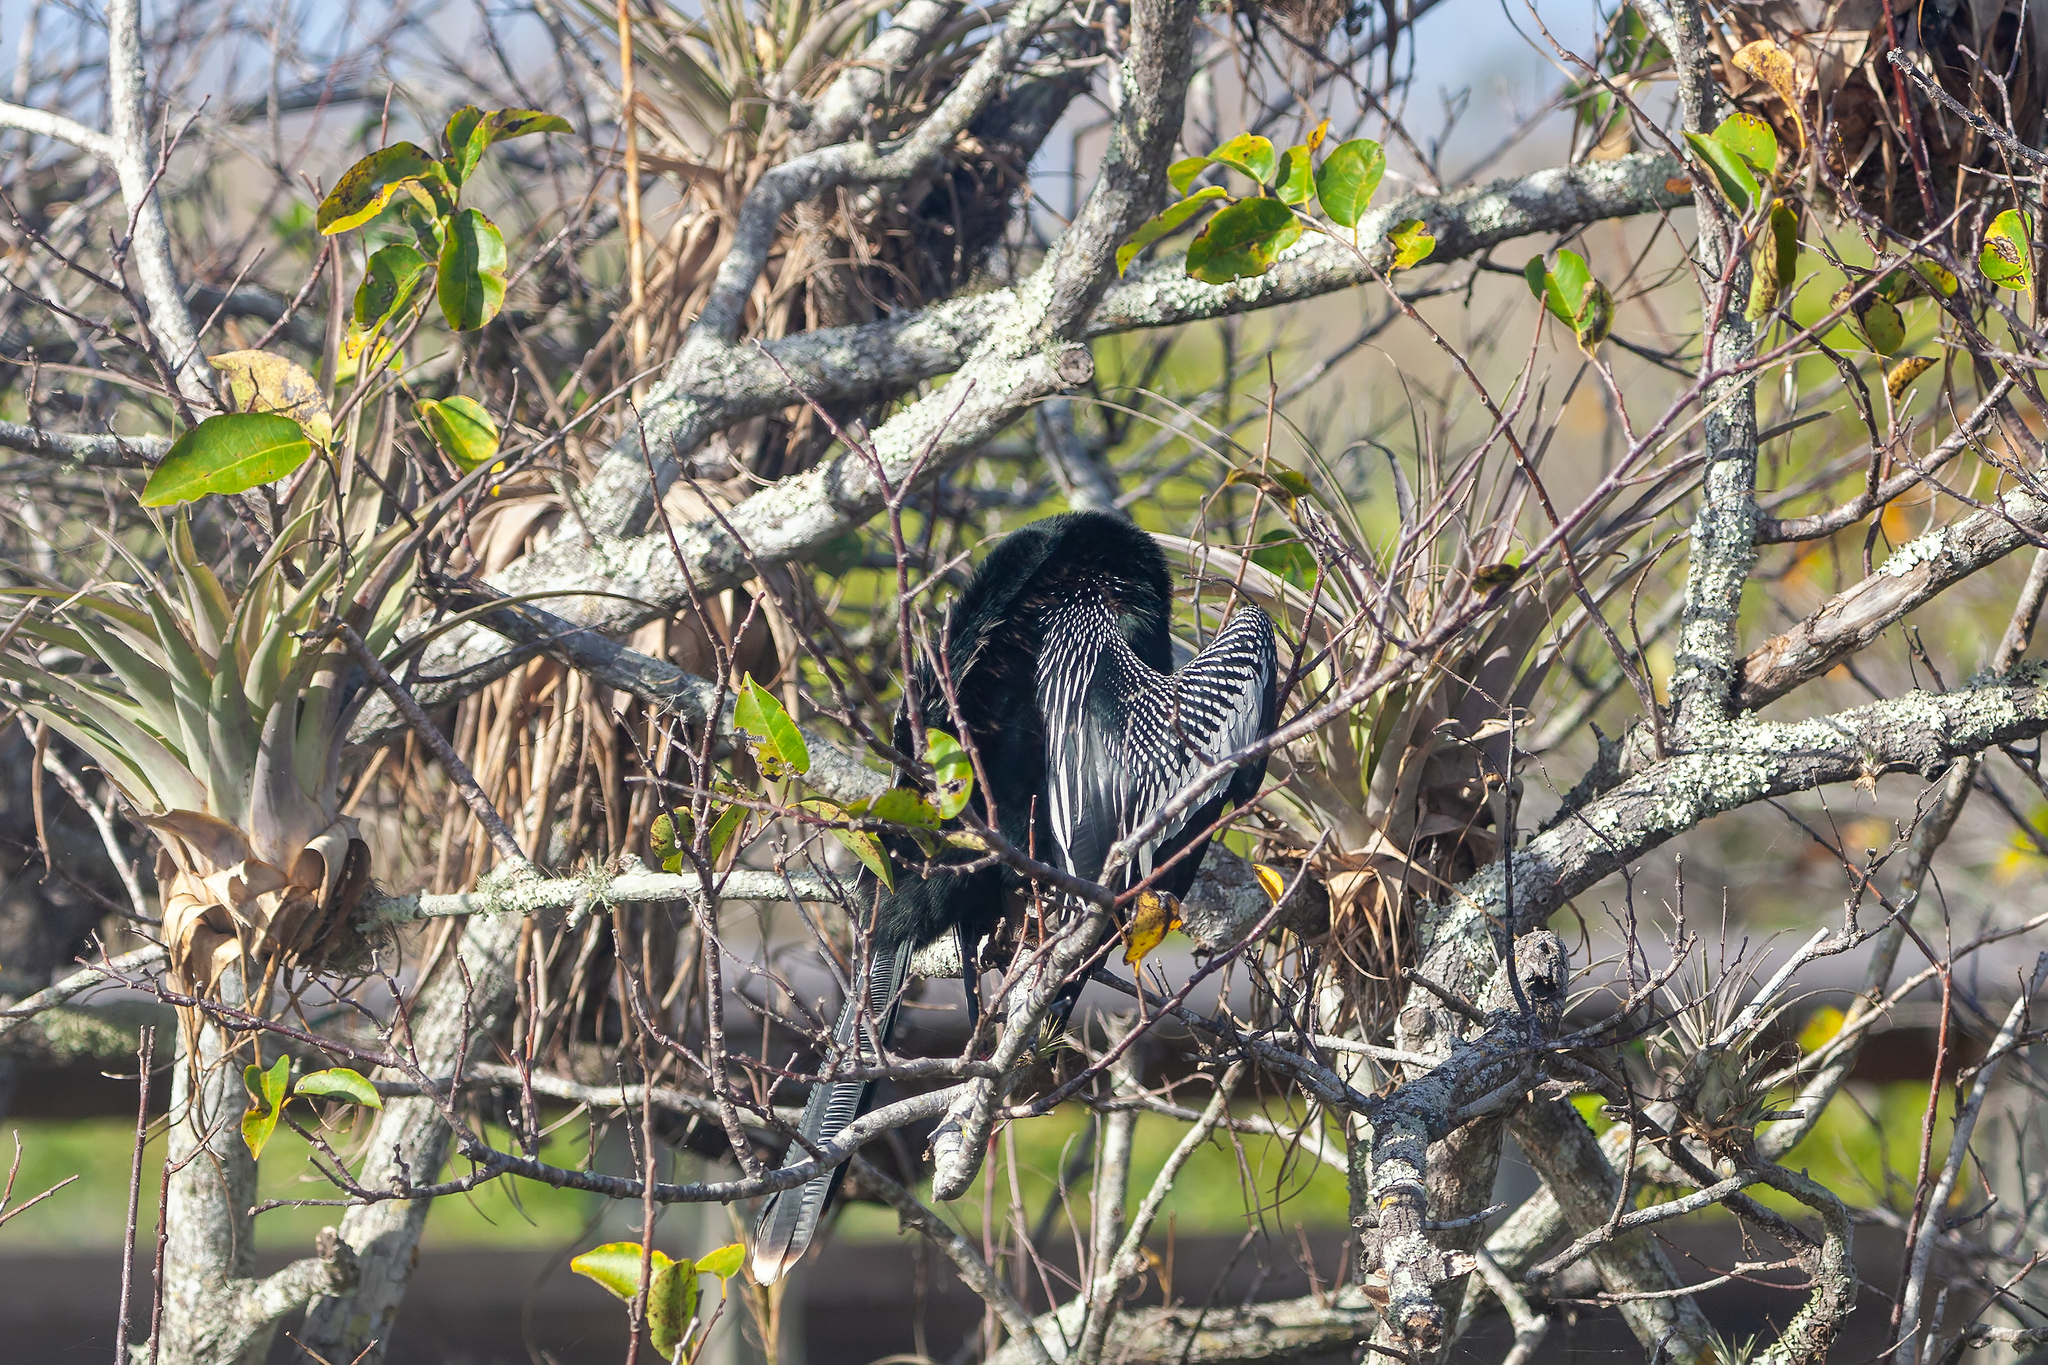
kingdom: Animalia
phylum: Chordata
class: Aves
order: Suliformes
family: Anhingidae
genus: Anhinga
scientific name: Anhinga anhinga
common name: Anhinga
